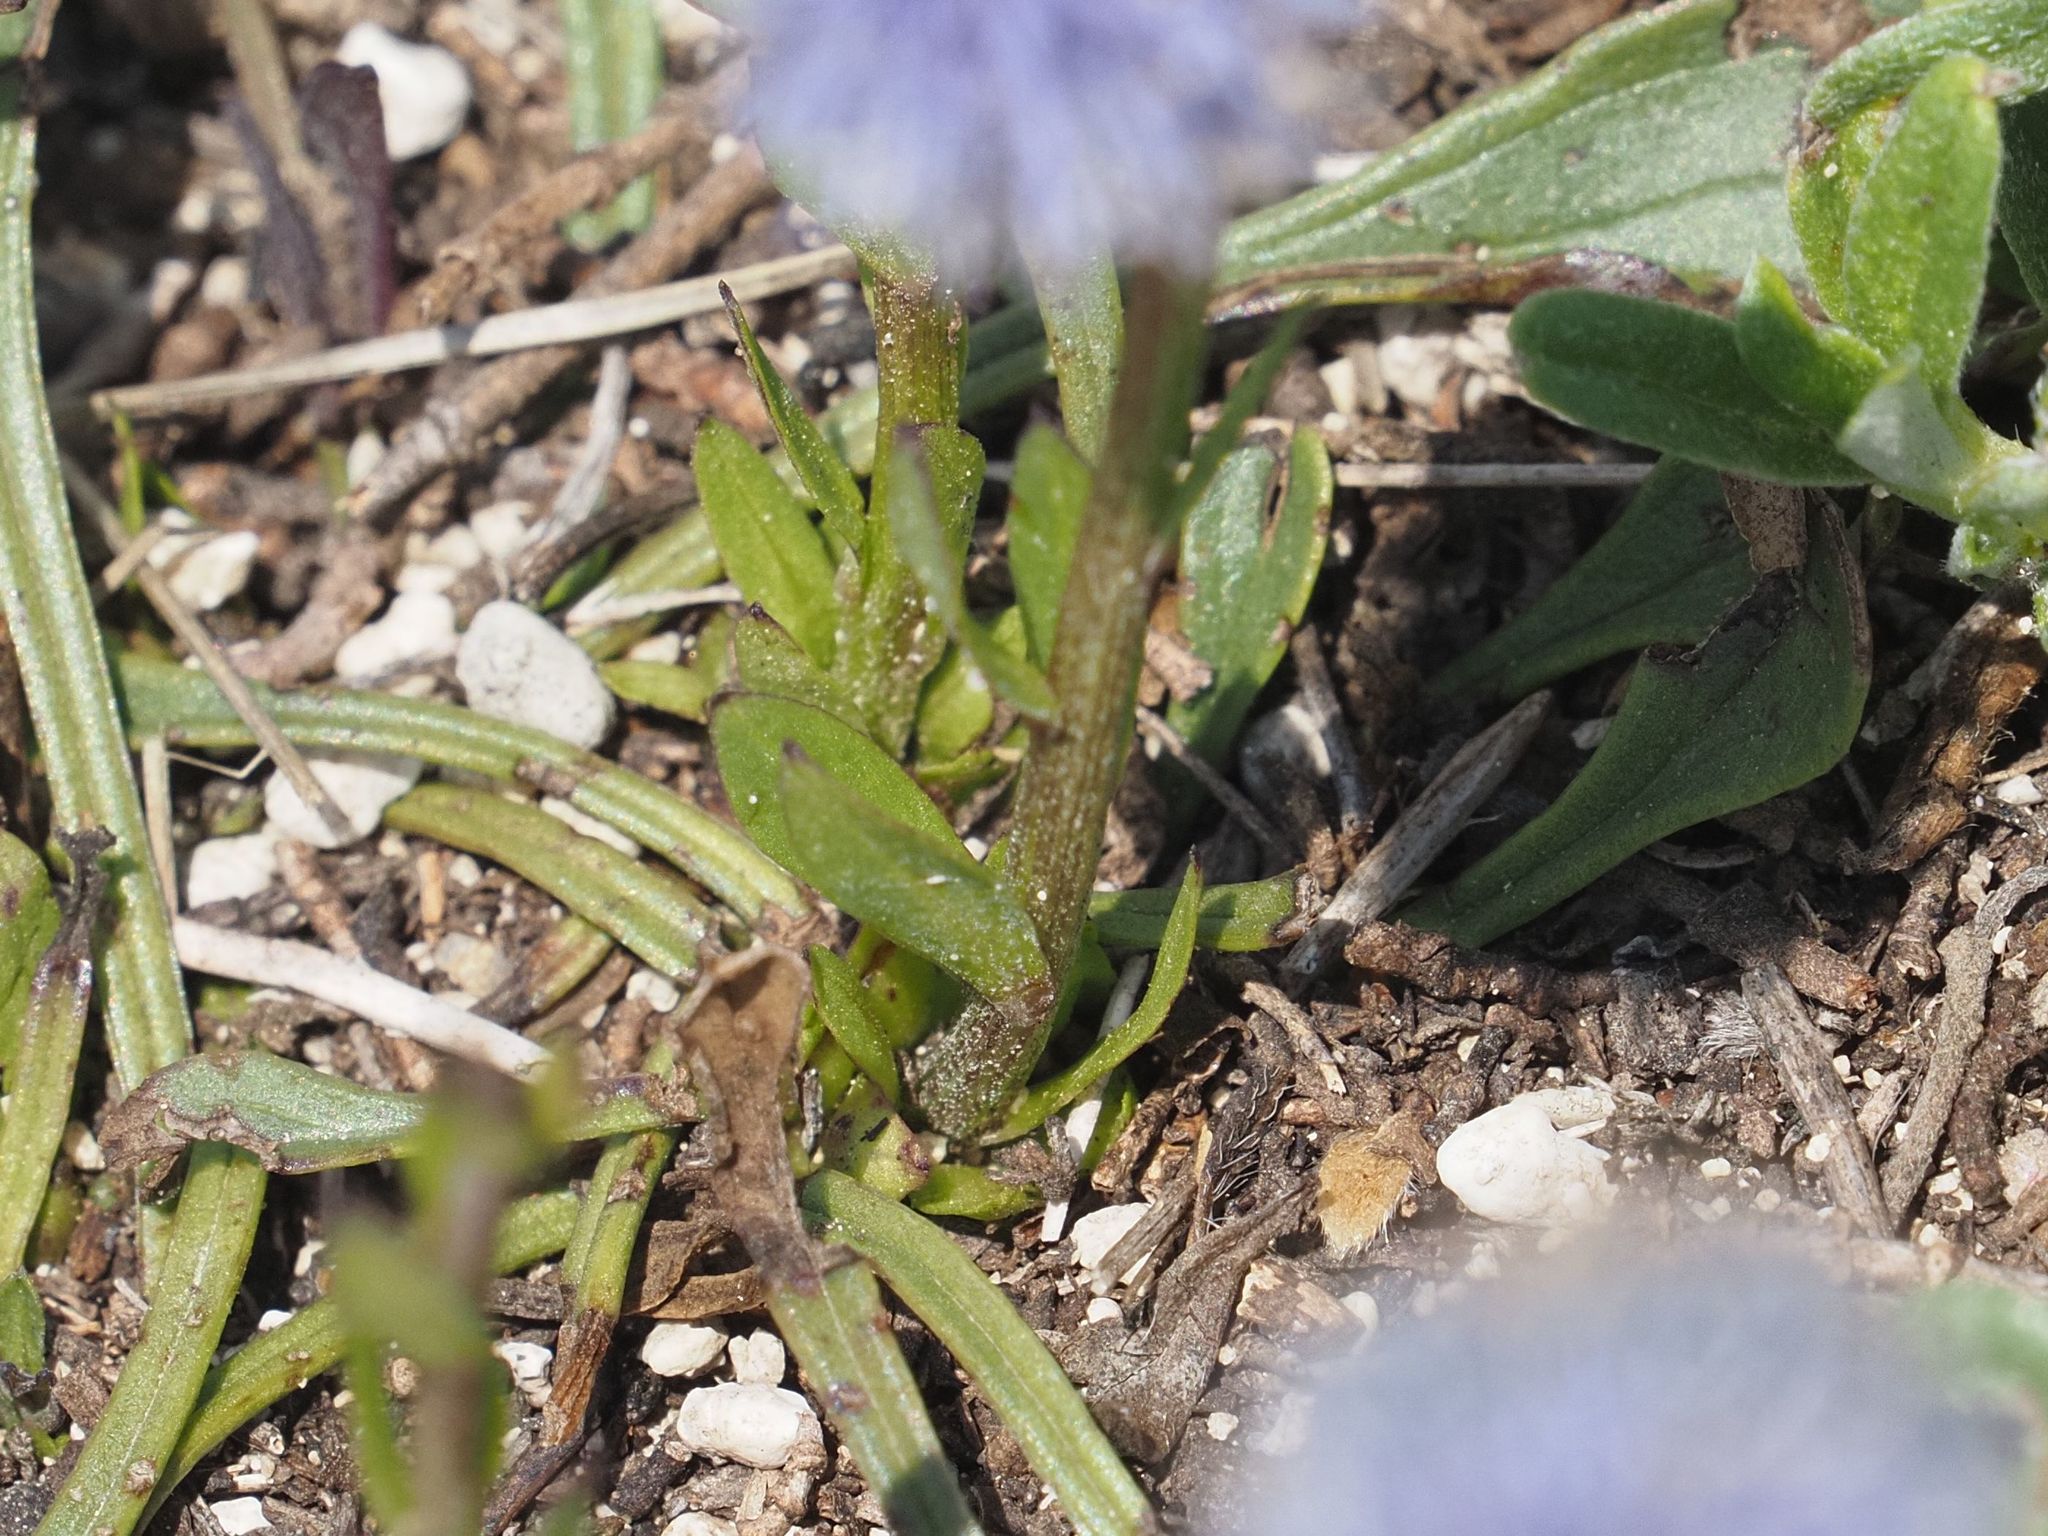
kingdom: Plantae
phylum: Tracheophyta
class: Magnoliopsida
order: Lamiales
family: Plantaginaceae
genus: Globularia
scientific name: Globularia bisnagarica
